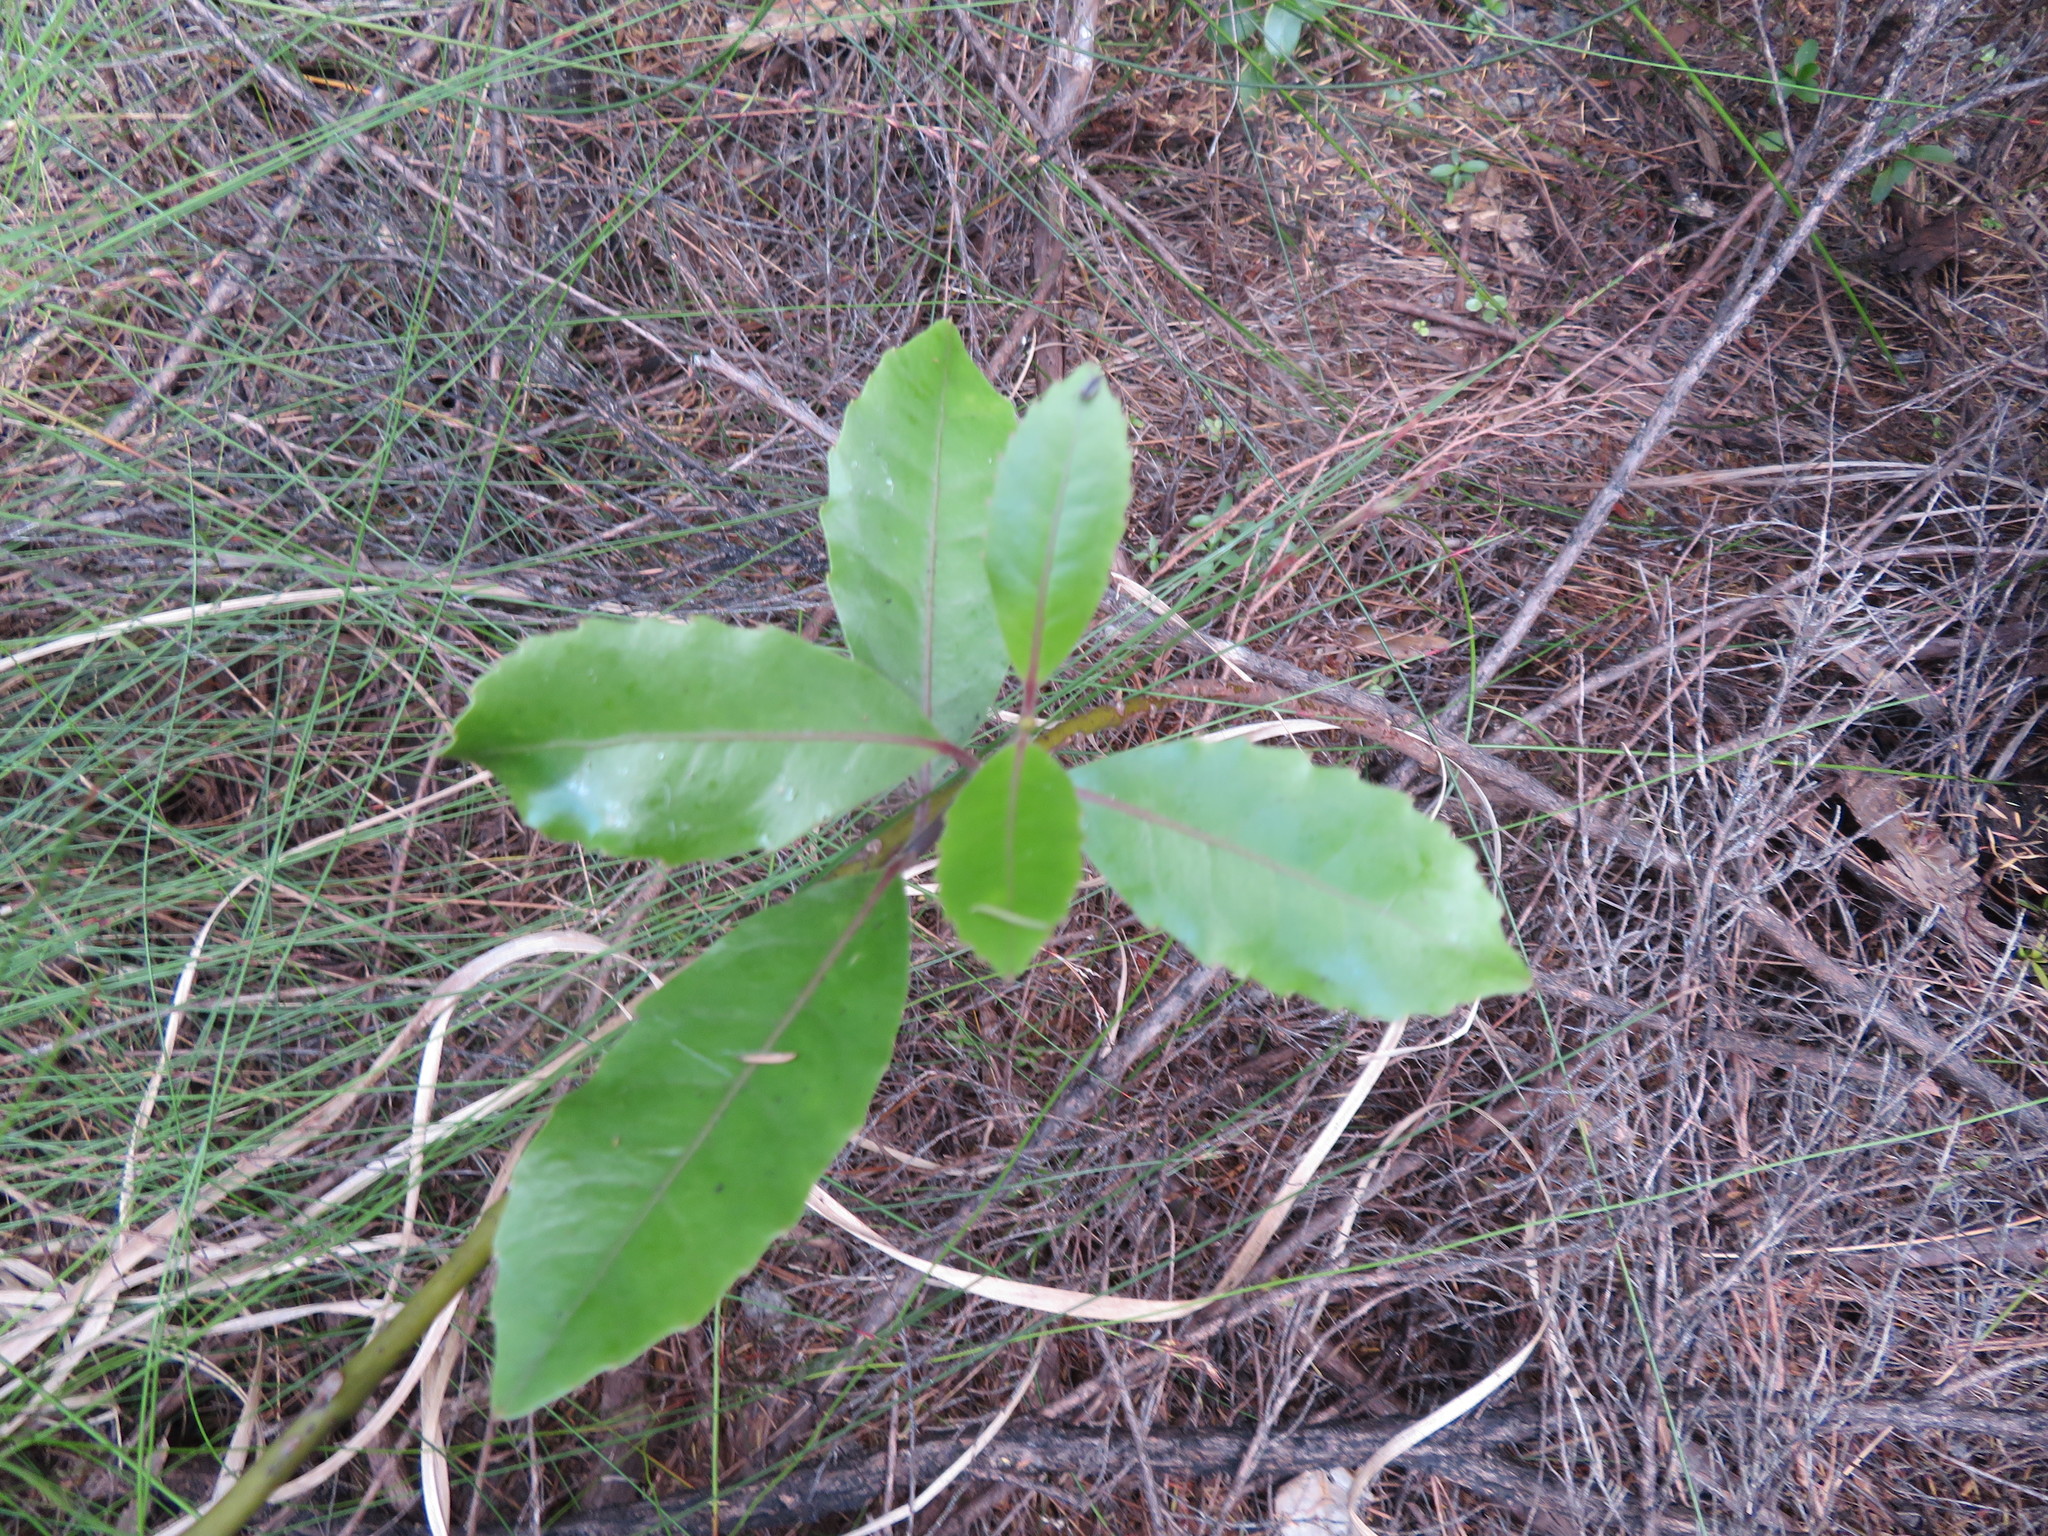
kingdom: Plantae
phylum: Tracheophyta
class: Magnoliopsida
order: Laurales
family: Monimiaceae
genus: Hedycarya
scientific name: Hedycarya arborea
